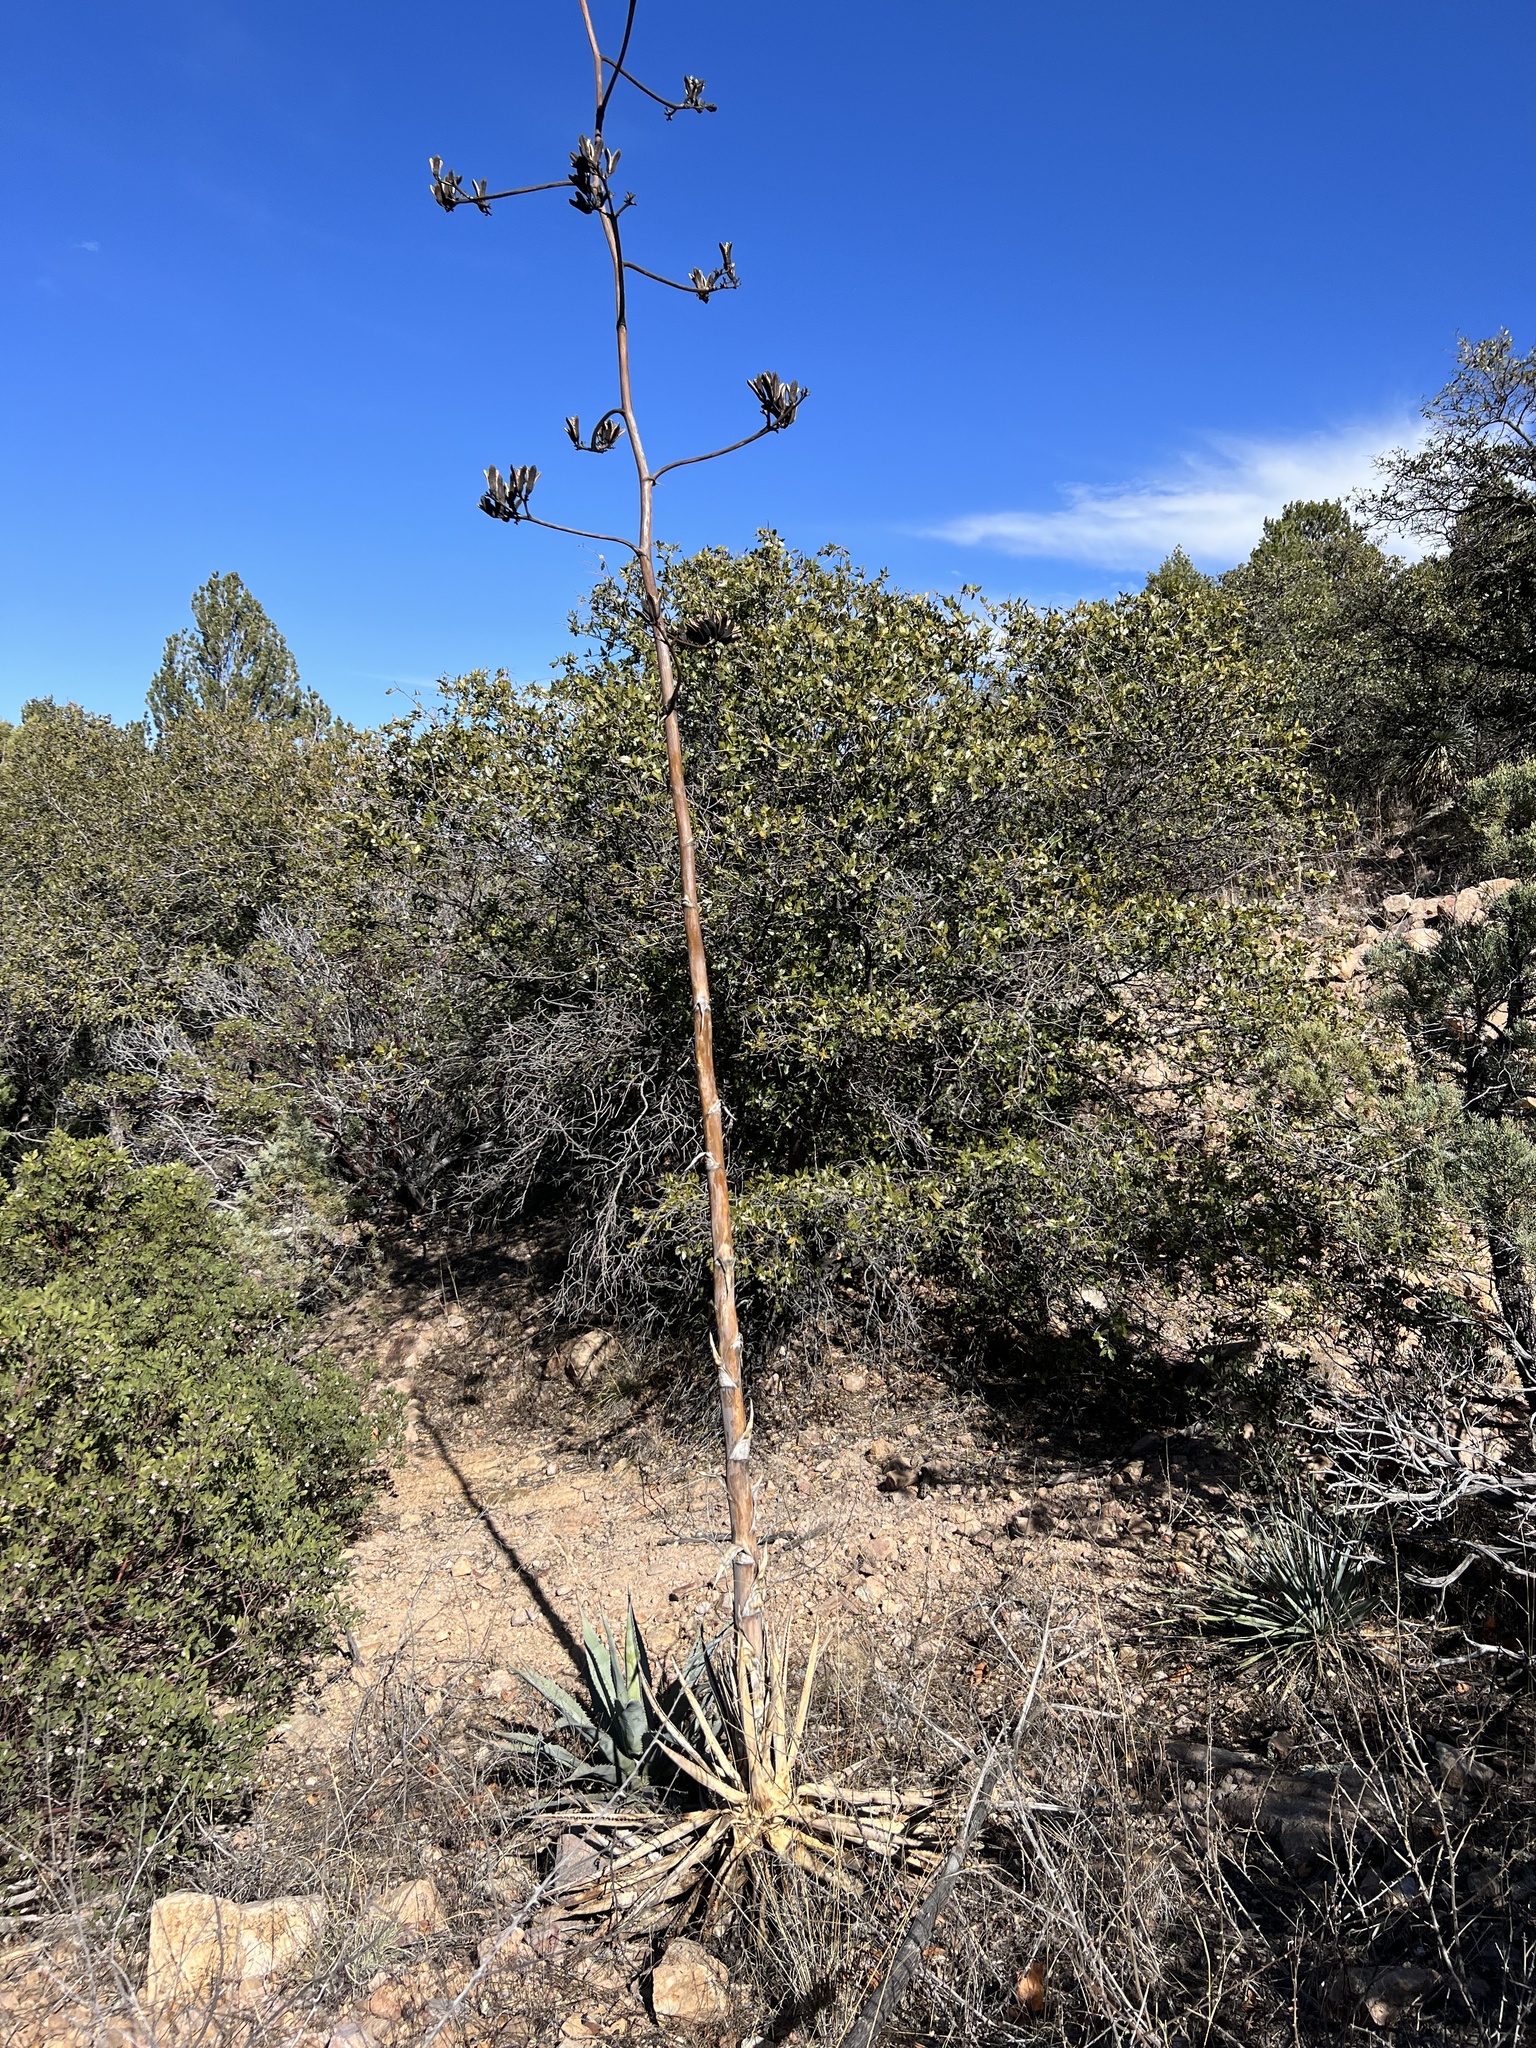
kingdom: Plantae
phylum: Tracheophyta
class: Liliopsida
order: Asparagales
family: Asparagaceae
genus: Agave
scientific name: Agave palmeri
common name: Palmer agave
